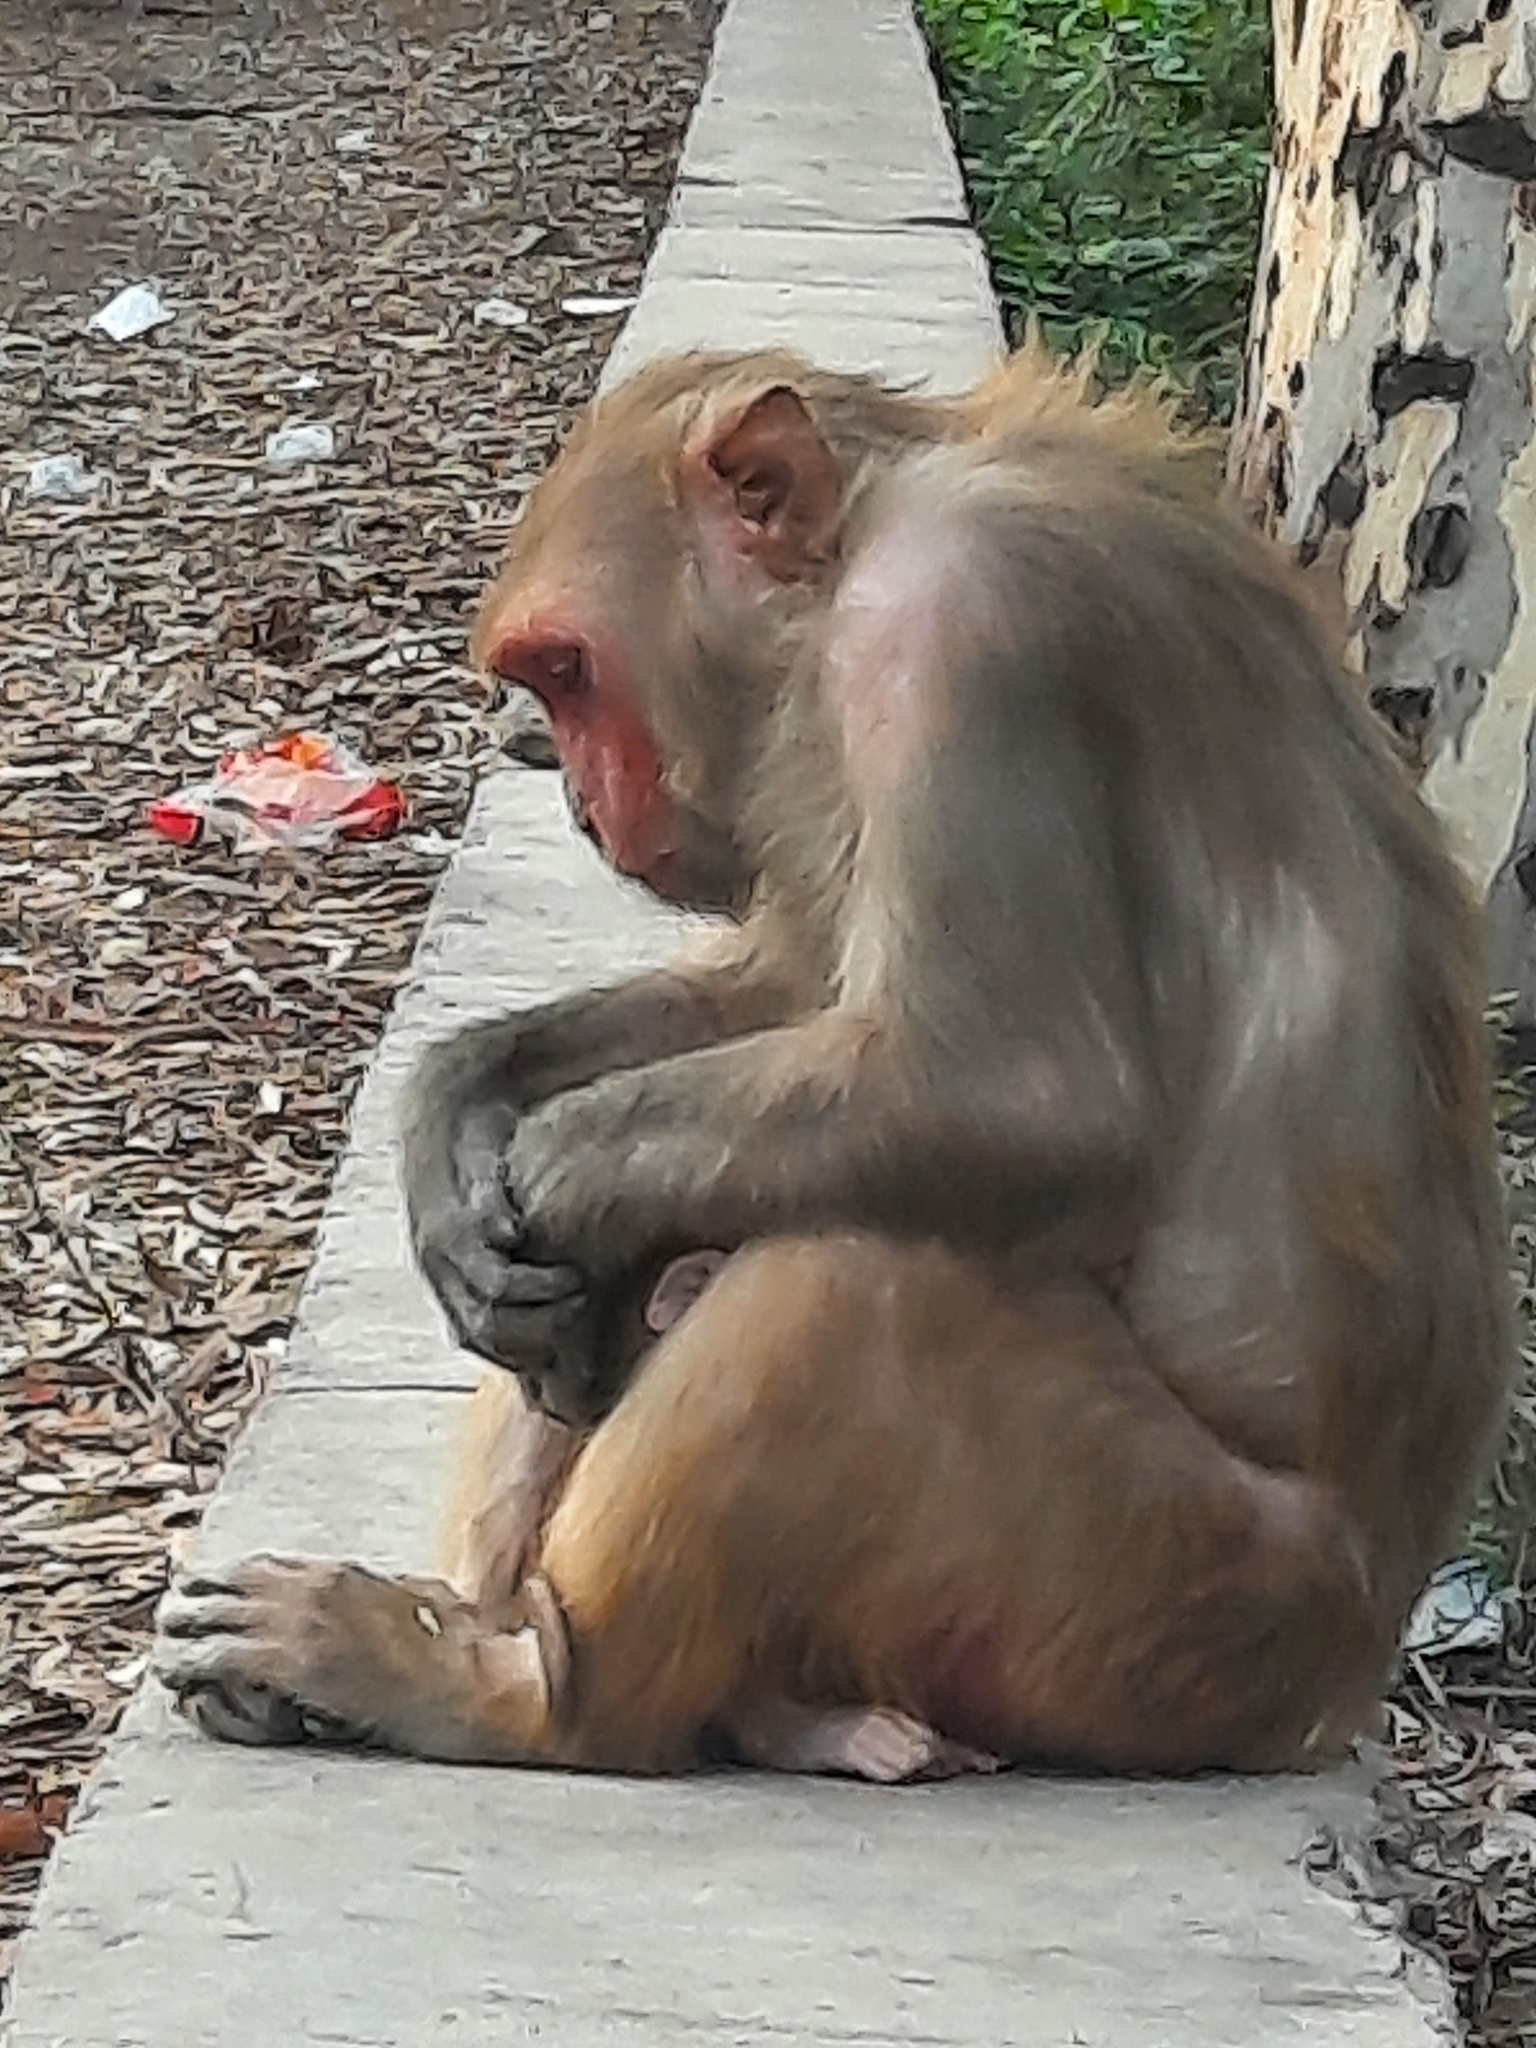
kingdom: Animalia
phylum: Chordata
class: Mammalia
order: Primates
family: Cercopithecidae
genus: Macaca
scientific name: Macaca mulatta
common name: Rhesus monkey
